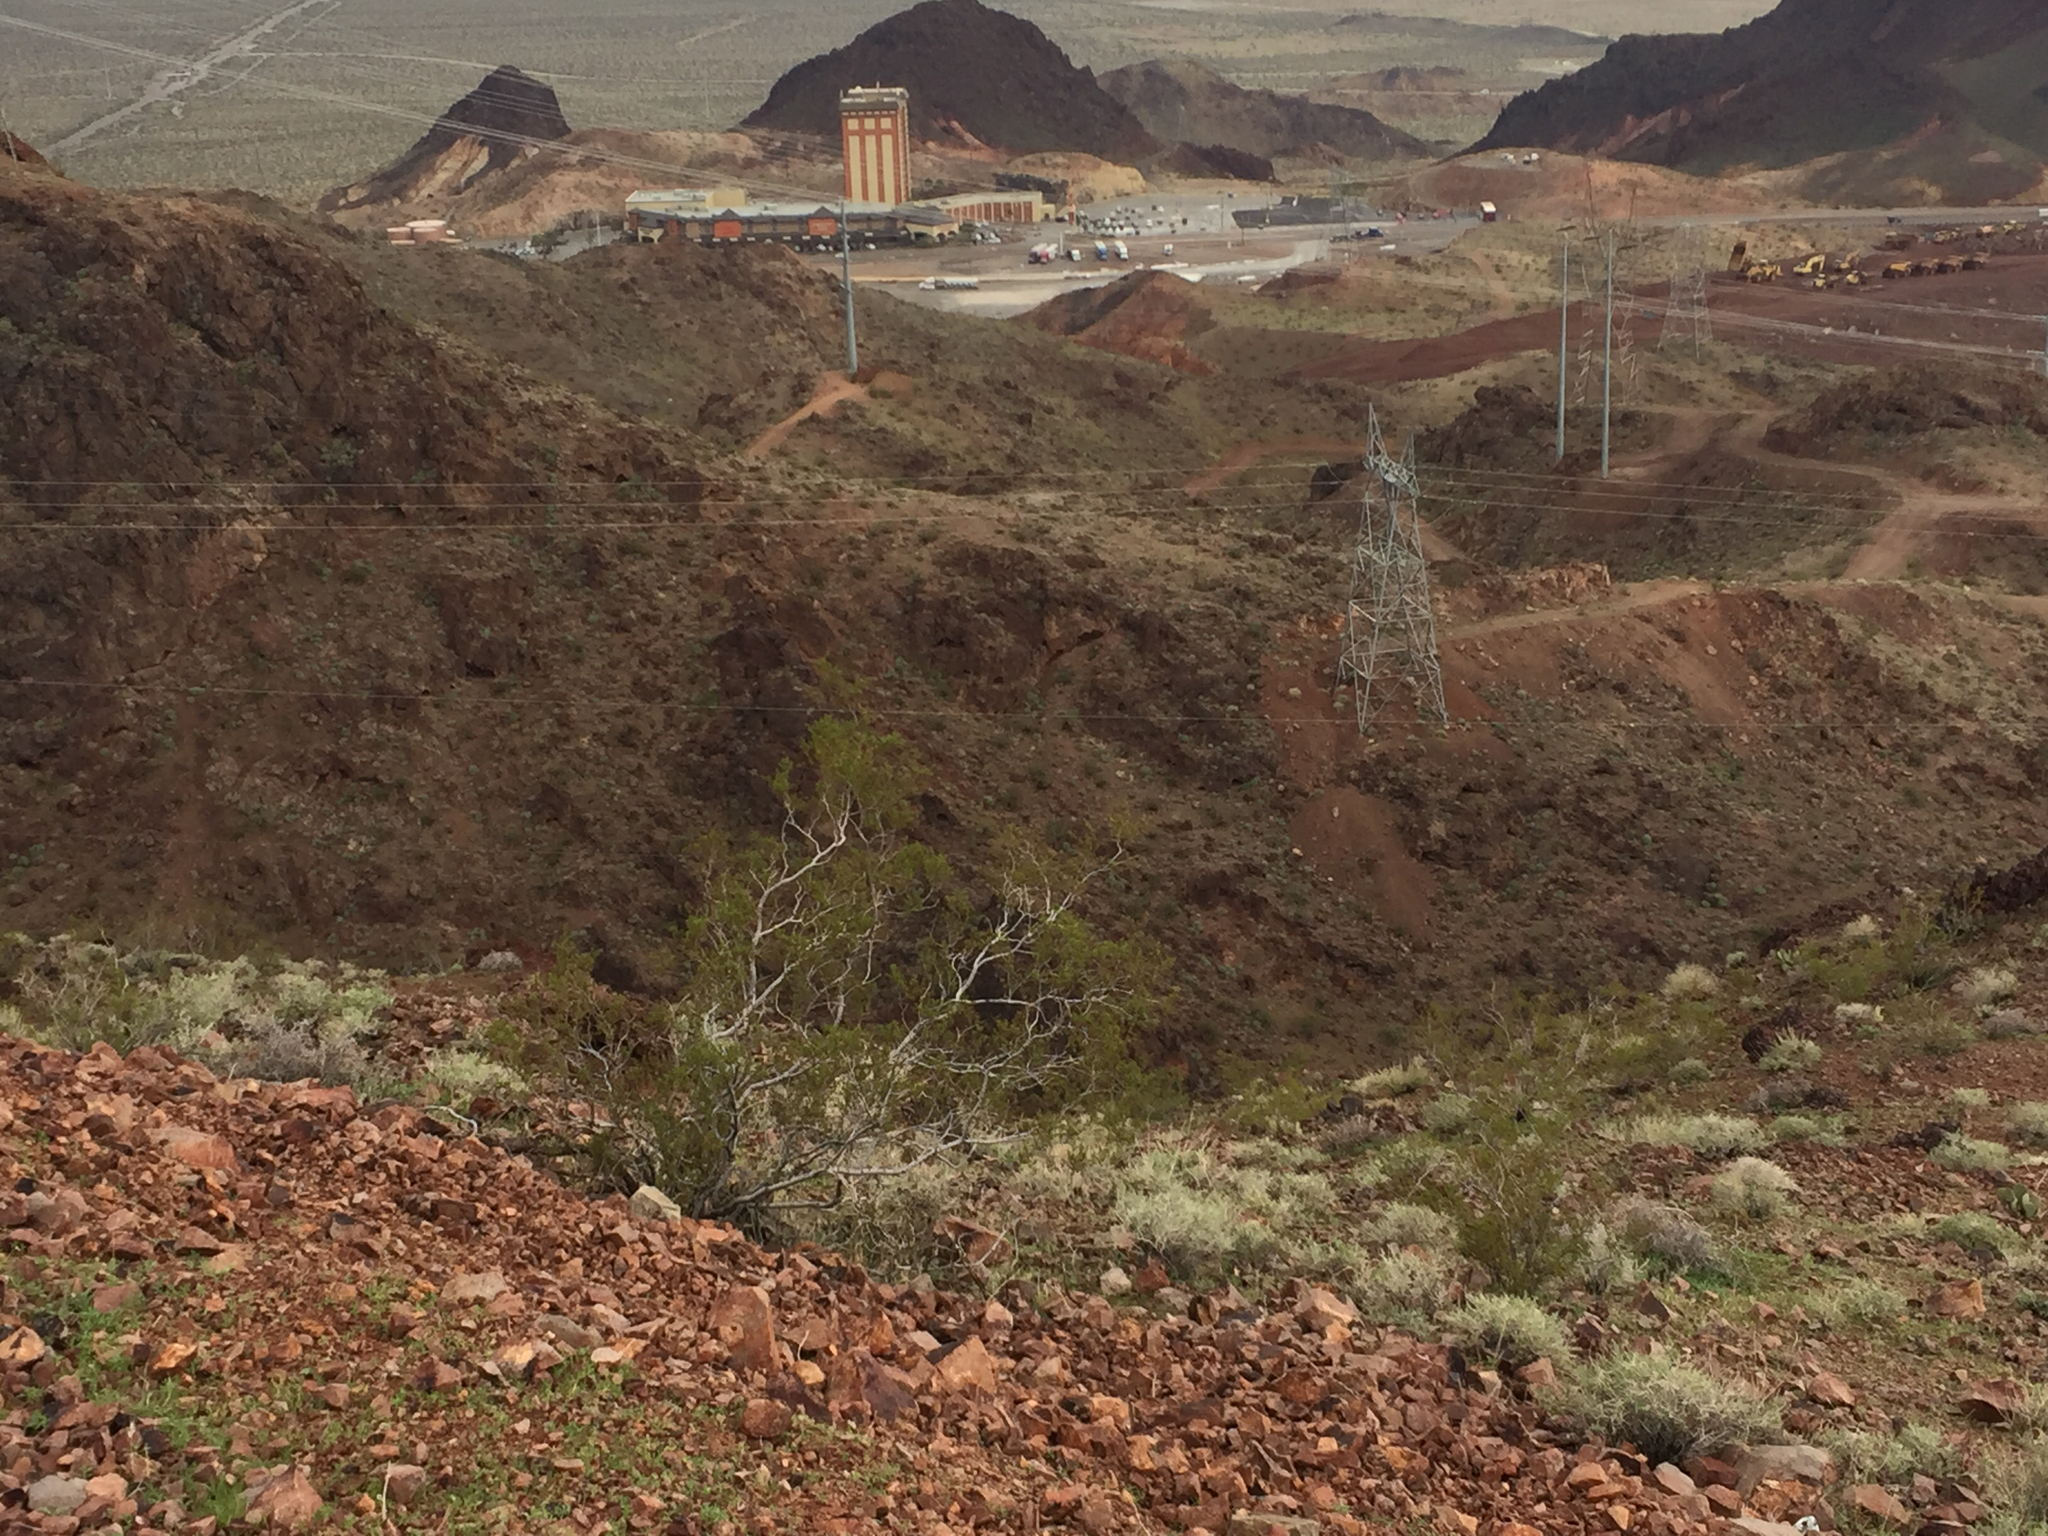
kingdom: Plantae
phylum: Tracheophyta
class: Magnoliopsida
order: Zygophyllales
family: Zygophyllaceae
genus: Larrea
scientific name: Larrea tridentata
